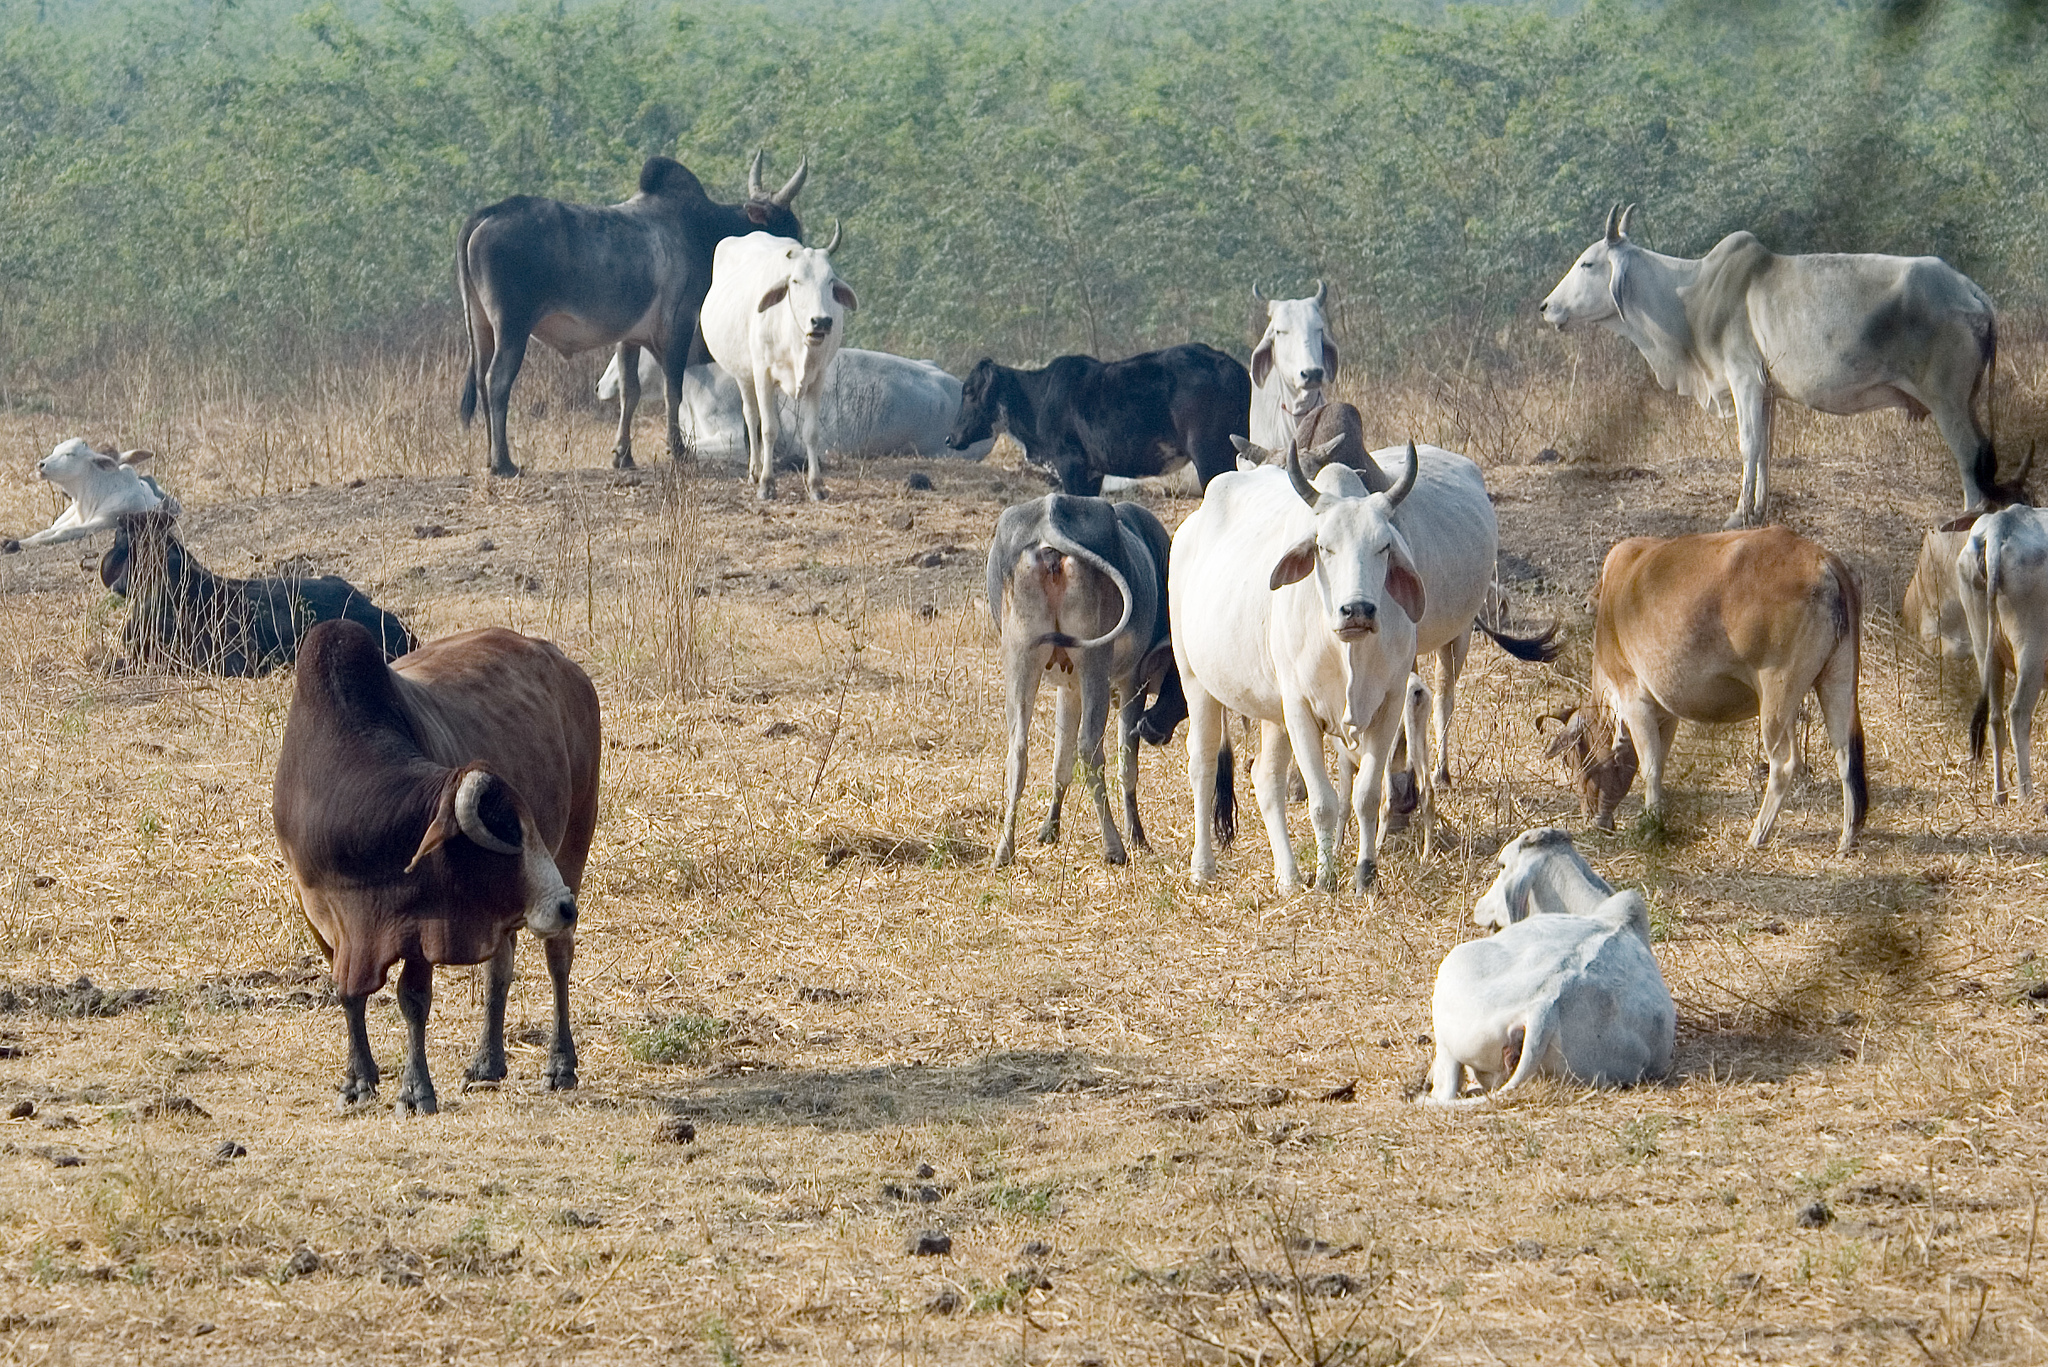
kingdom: Animalia
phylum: Chordata
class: Mammalia
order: Artiodactyla
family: Bovidae
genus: Bos
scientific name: Bos taurus
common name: Domesticated cattle
